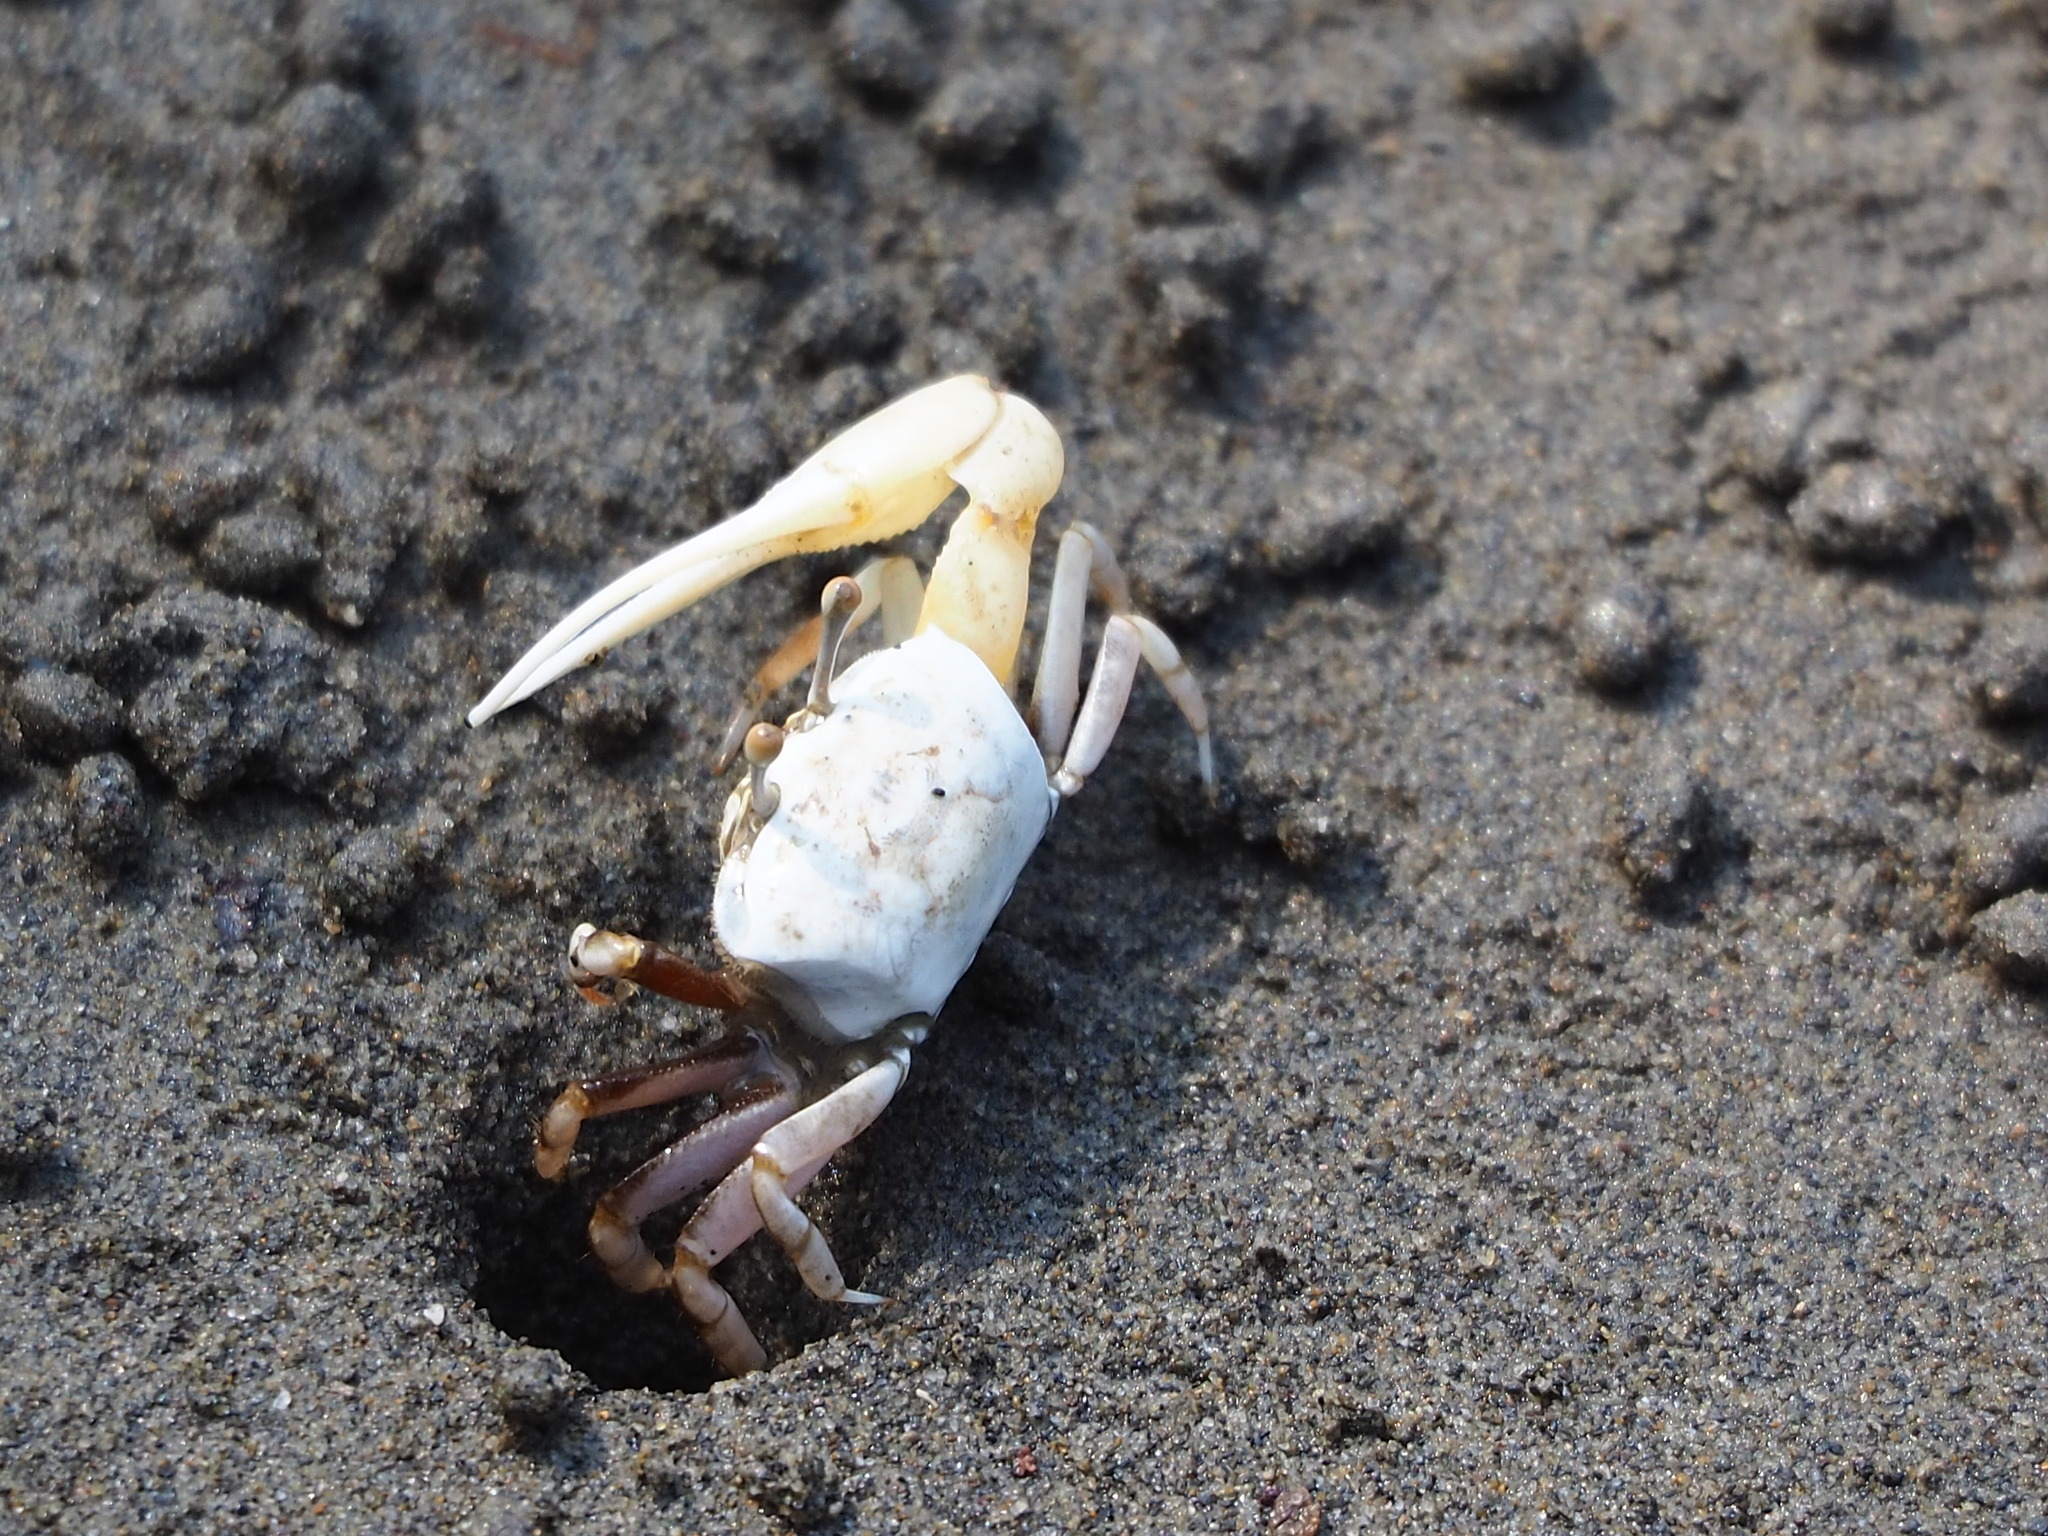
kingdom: Animalia
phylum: Arthropoda
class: Malacostraca
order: Decapoda
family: Ocypodidae
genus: Austruca
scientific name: Austruca lactea
